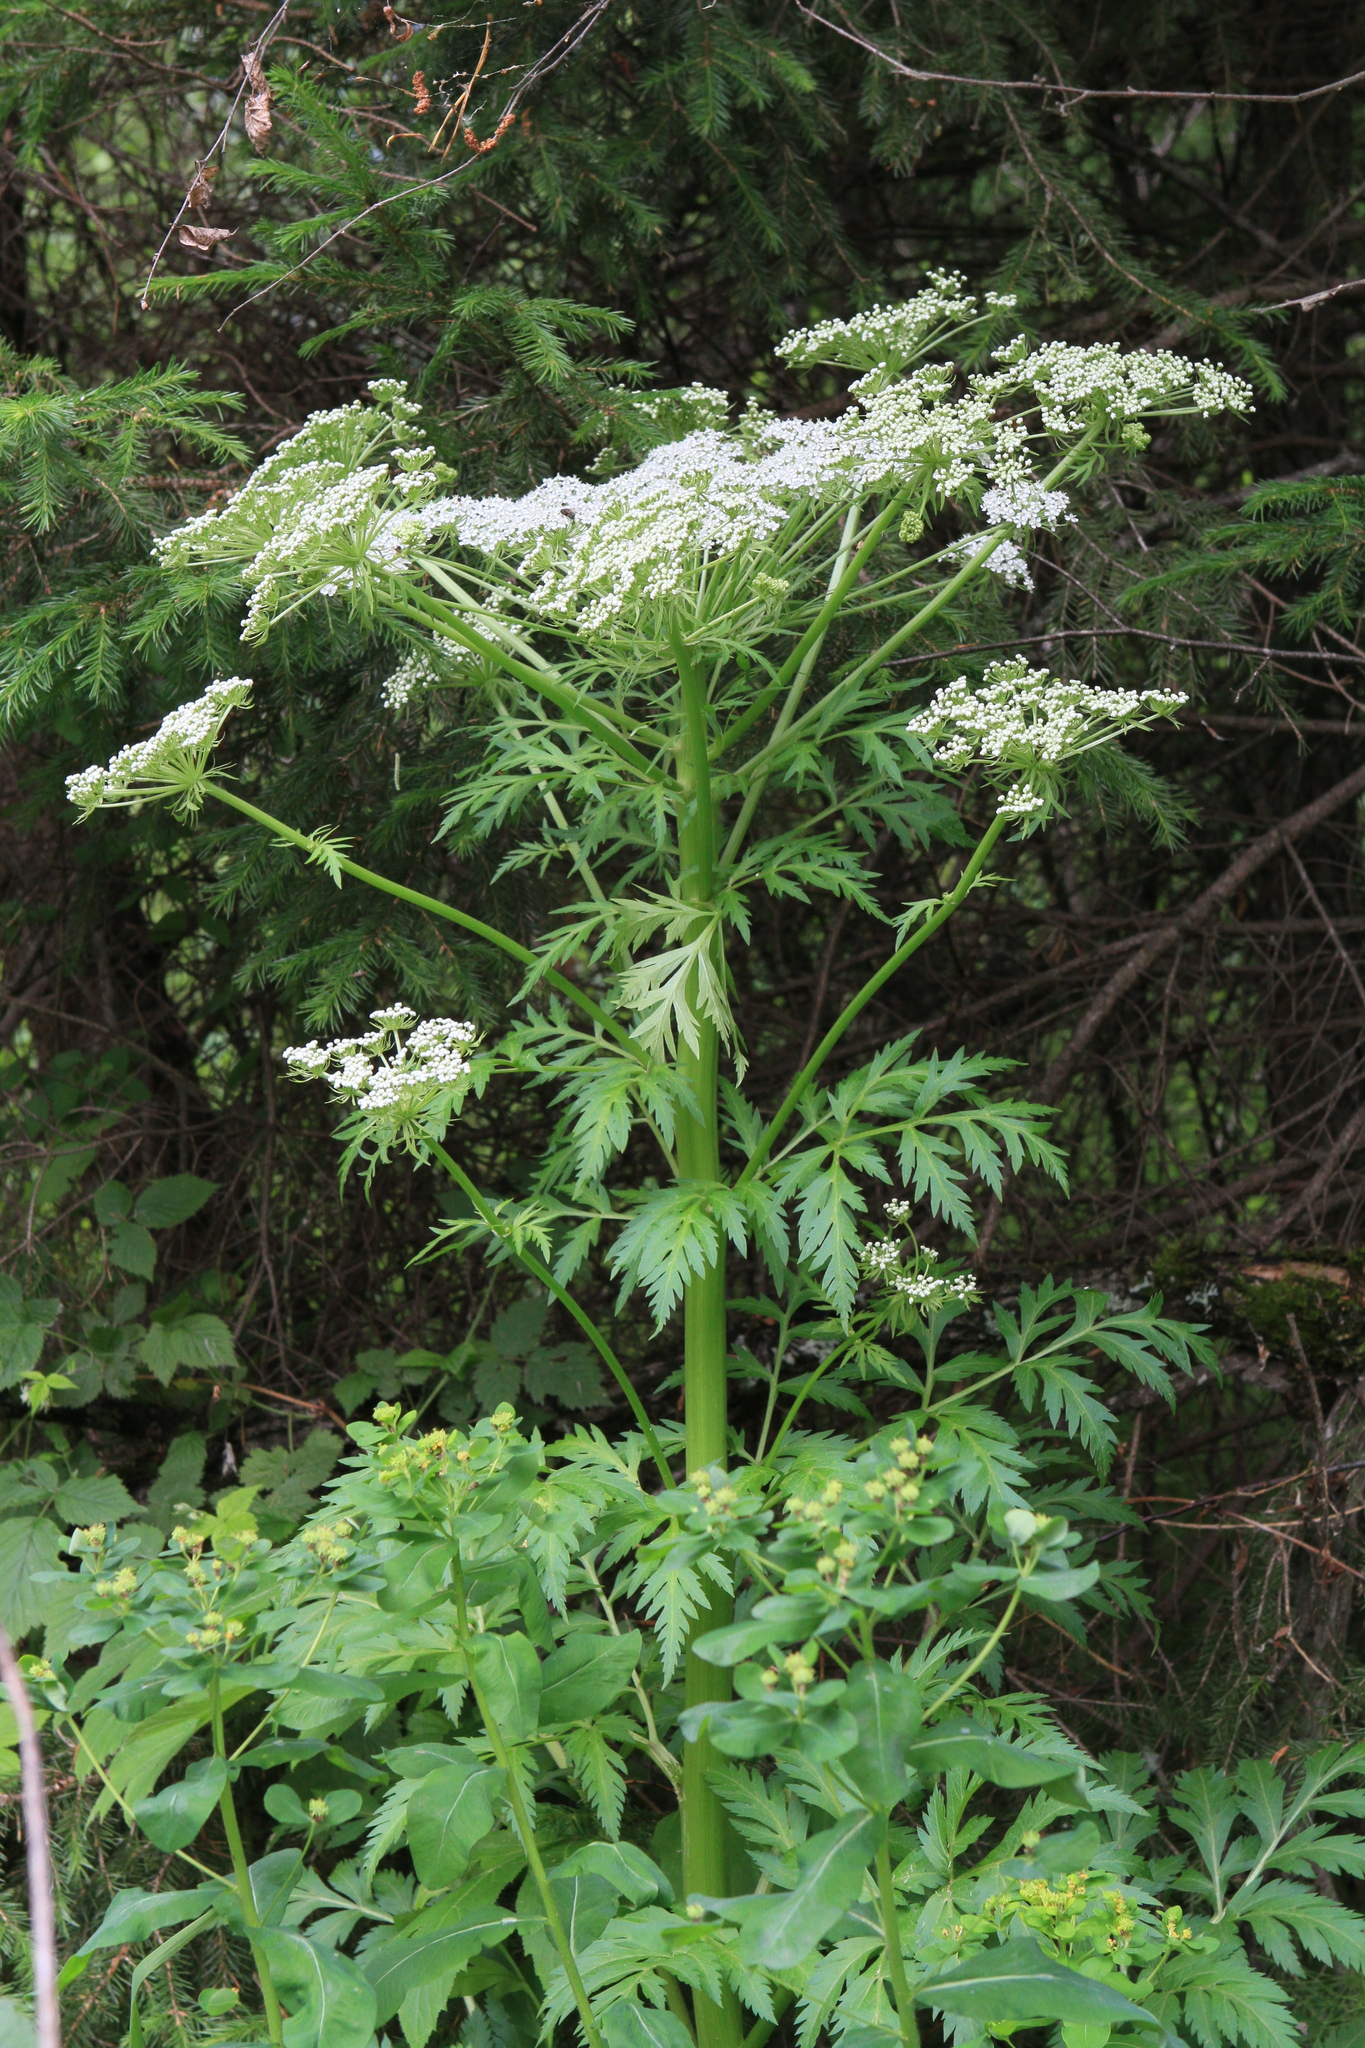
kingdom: Plantae
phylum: Tracheophyta
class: Magnoliopsida
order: Apiales
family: Apiaceae
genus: Pleurospermum
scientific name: Pleurospermum uralense
